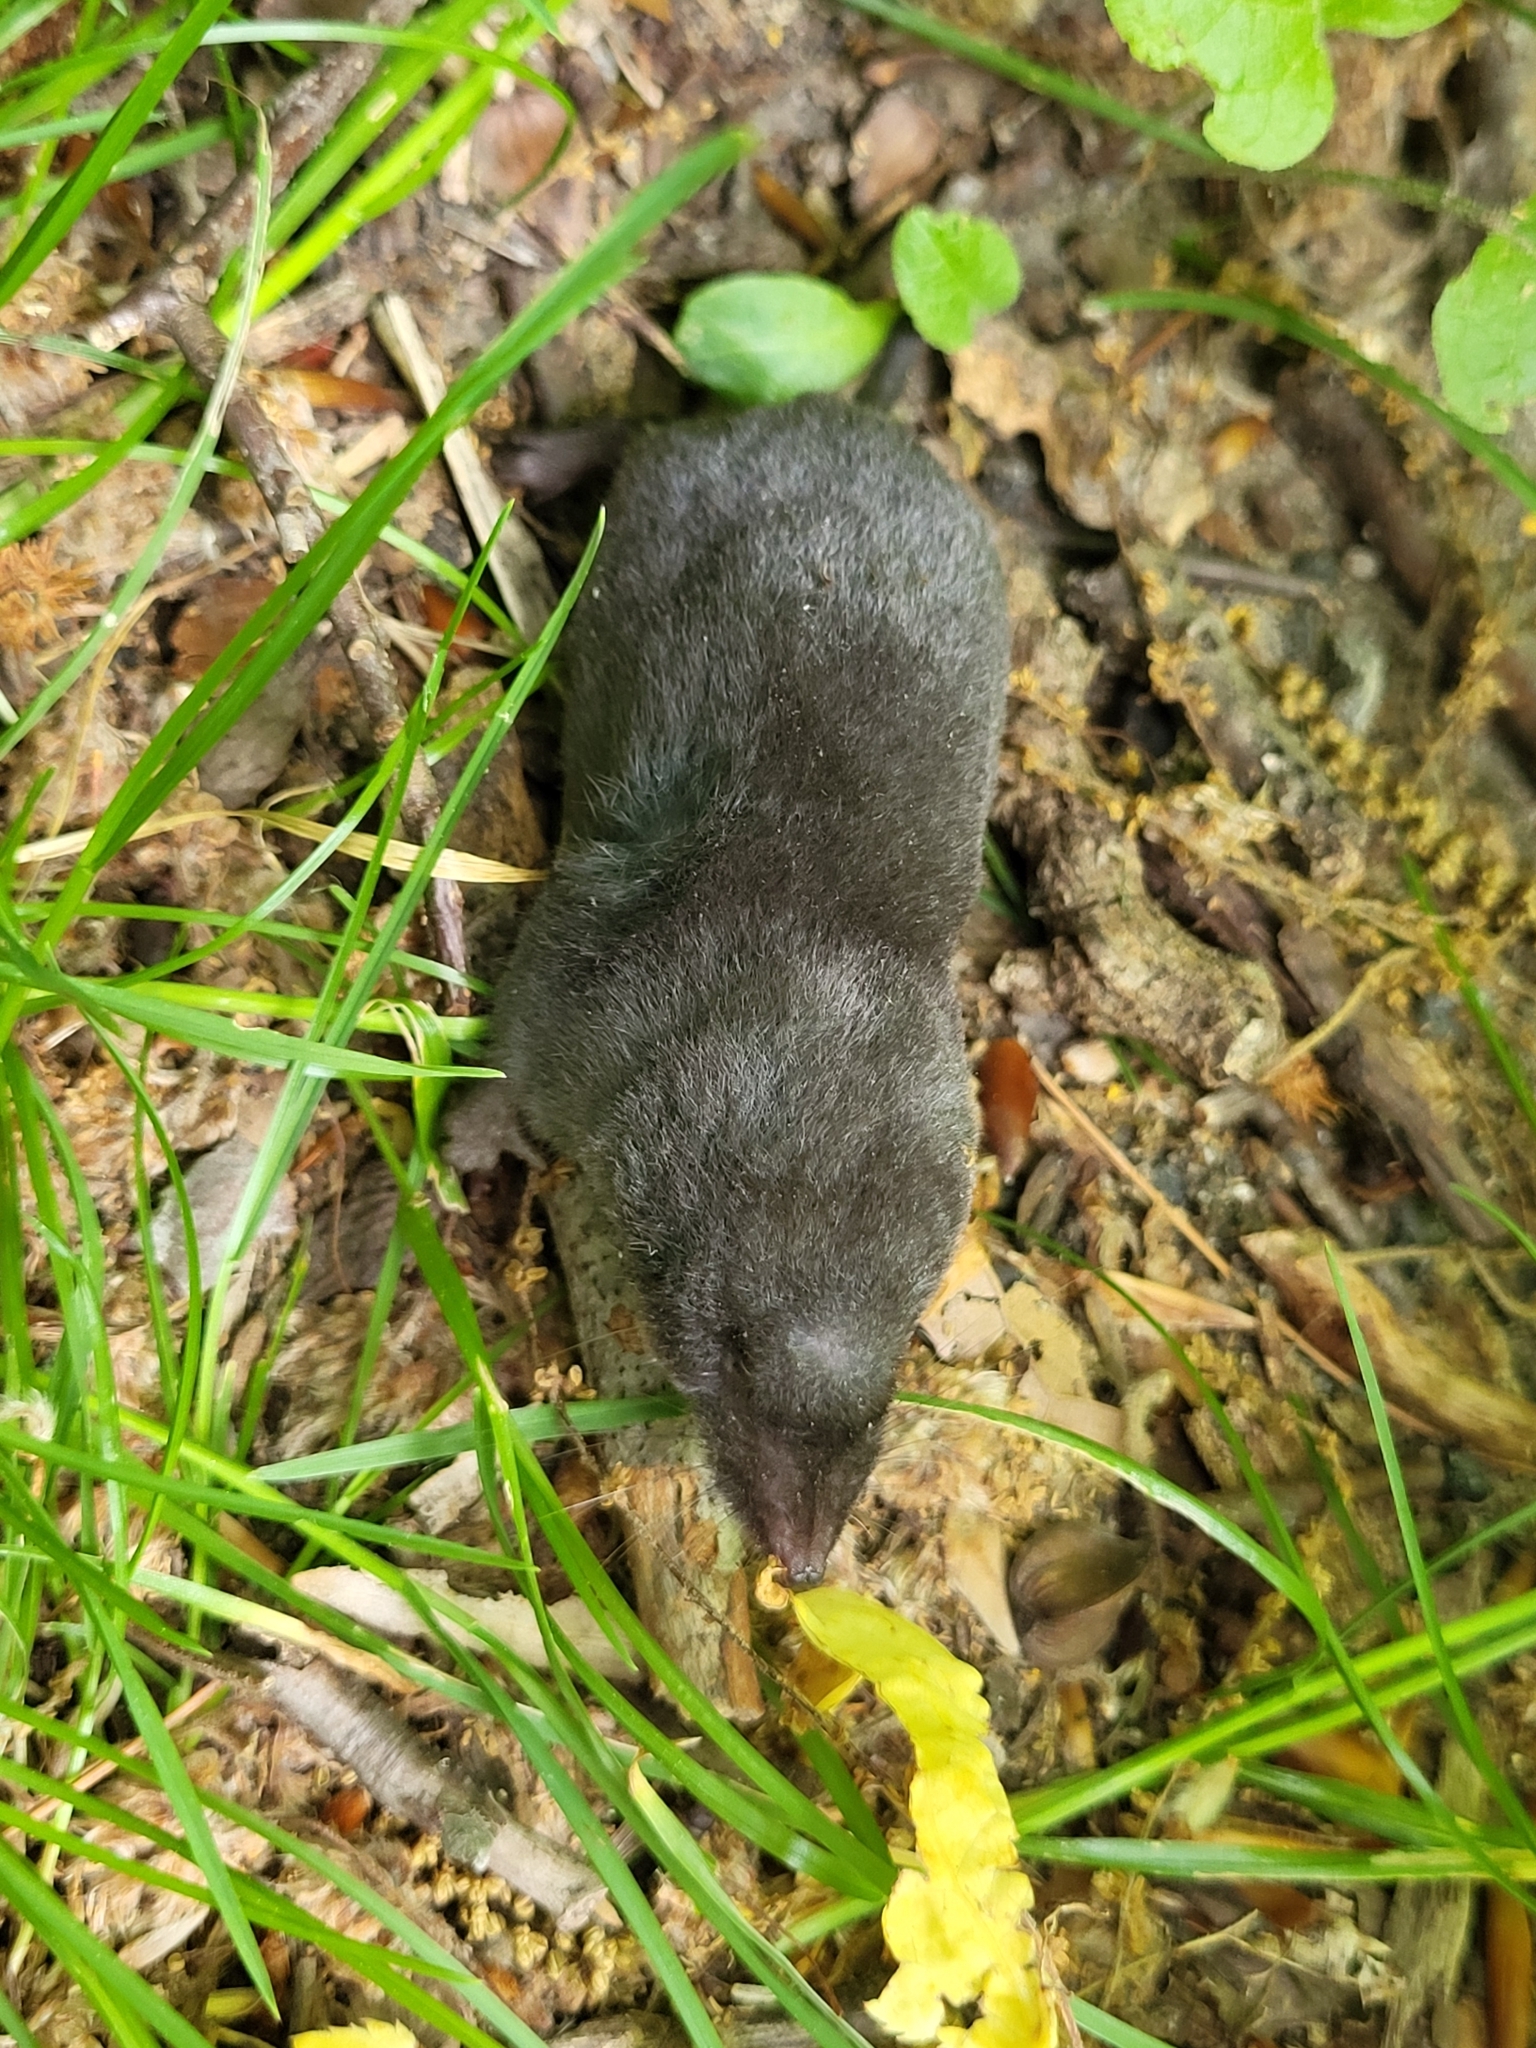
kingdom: Animalia
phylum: Chordata
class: Mammalia
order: Soricomorpha
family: Soricidae
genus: Blarina
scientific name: Blarina brevicauda
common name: Northern short-tailed shrew
